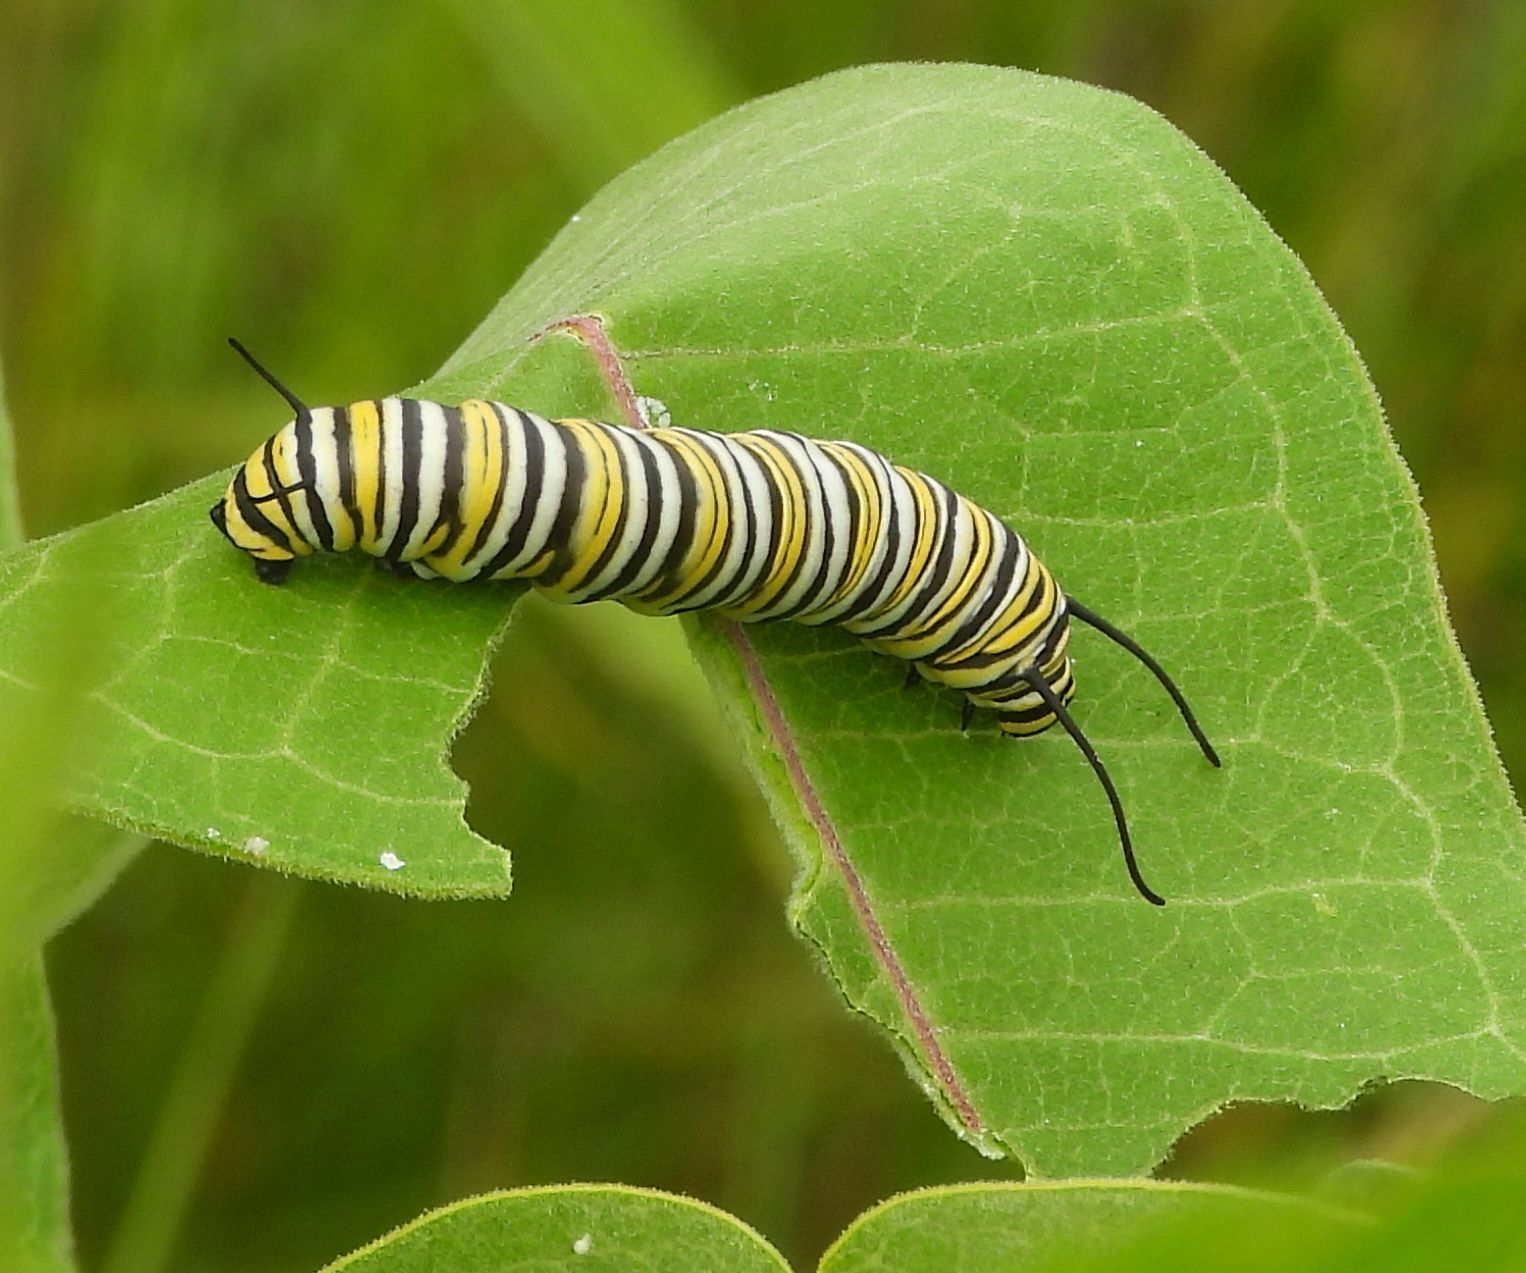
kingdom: Animalia
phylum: Arthropoda
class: Insecta
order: Lepidoptera
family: Nymphalidae
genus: Danaus
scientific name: Danaus plexippus
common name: Monarch
